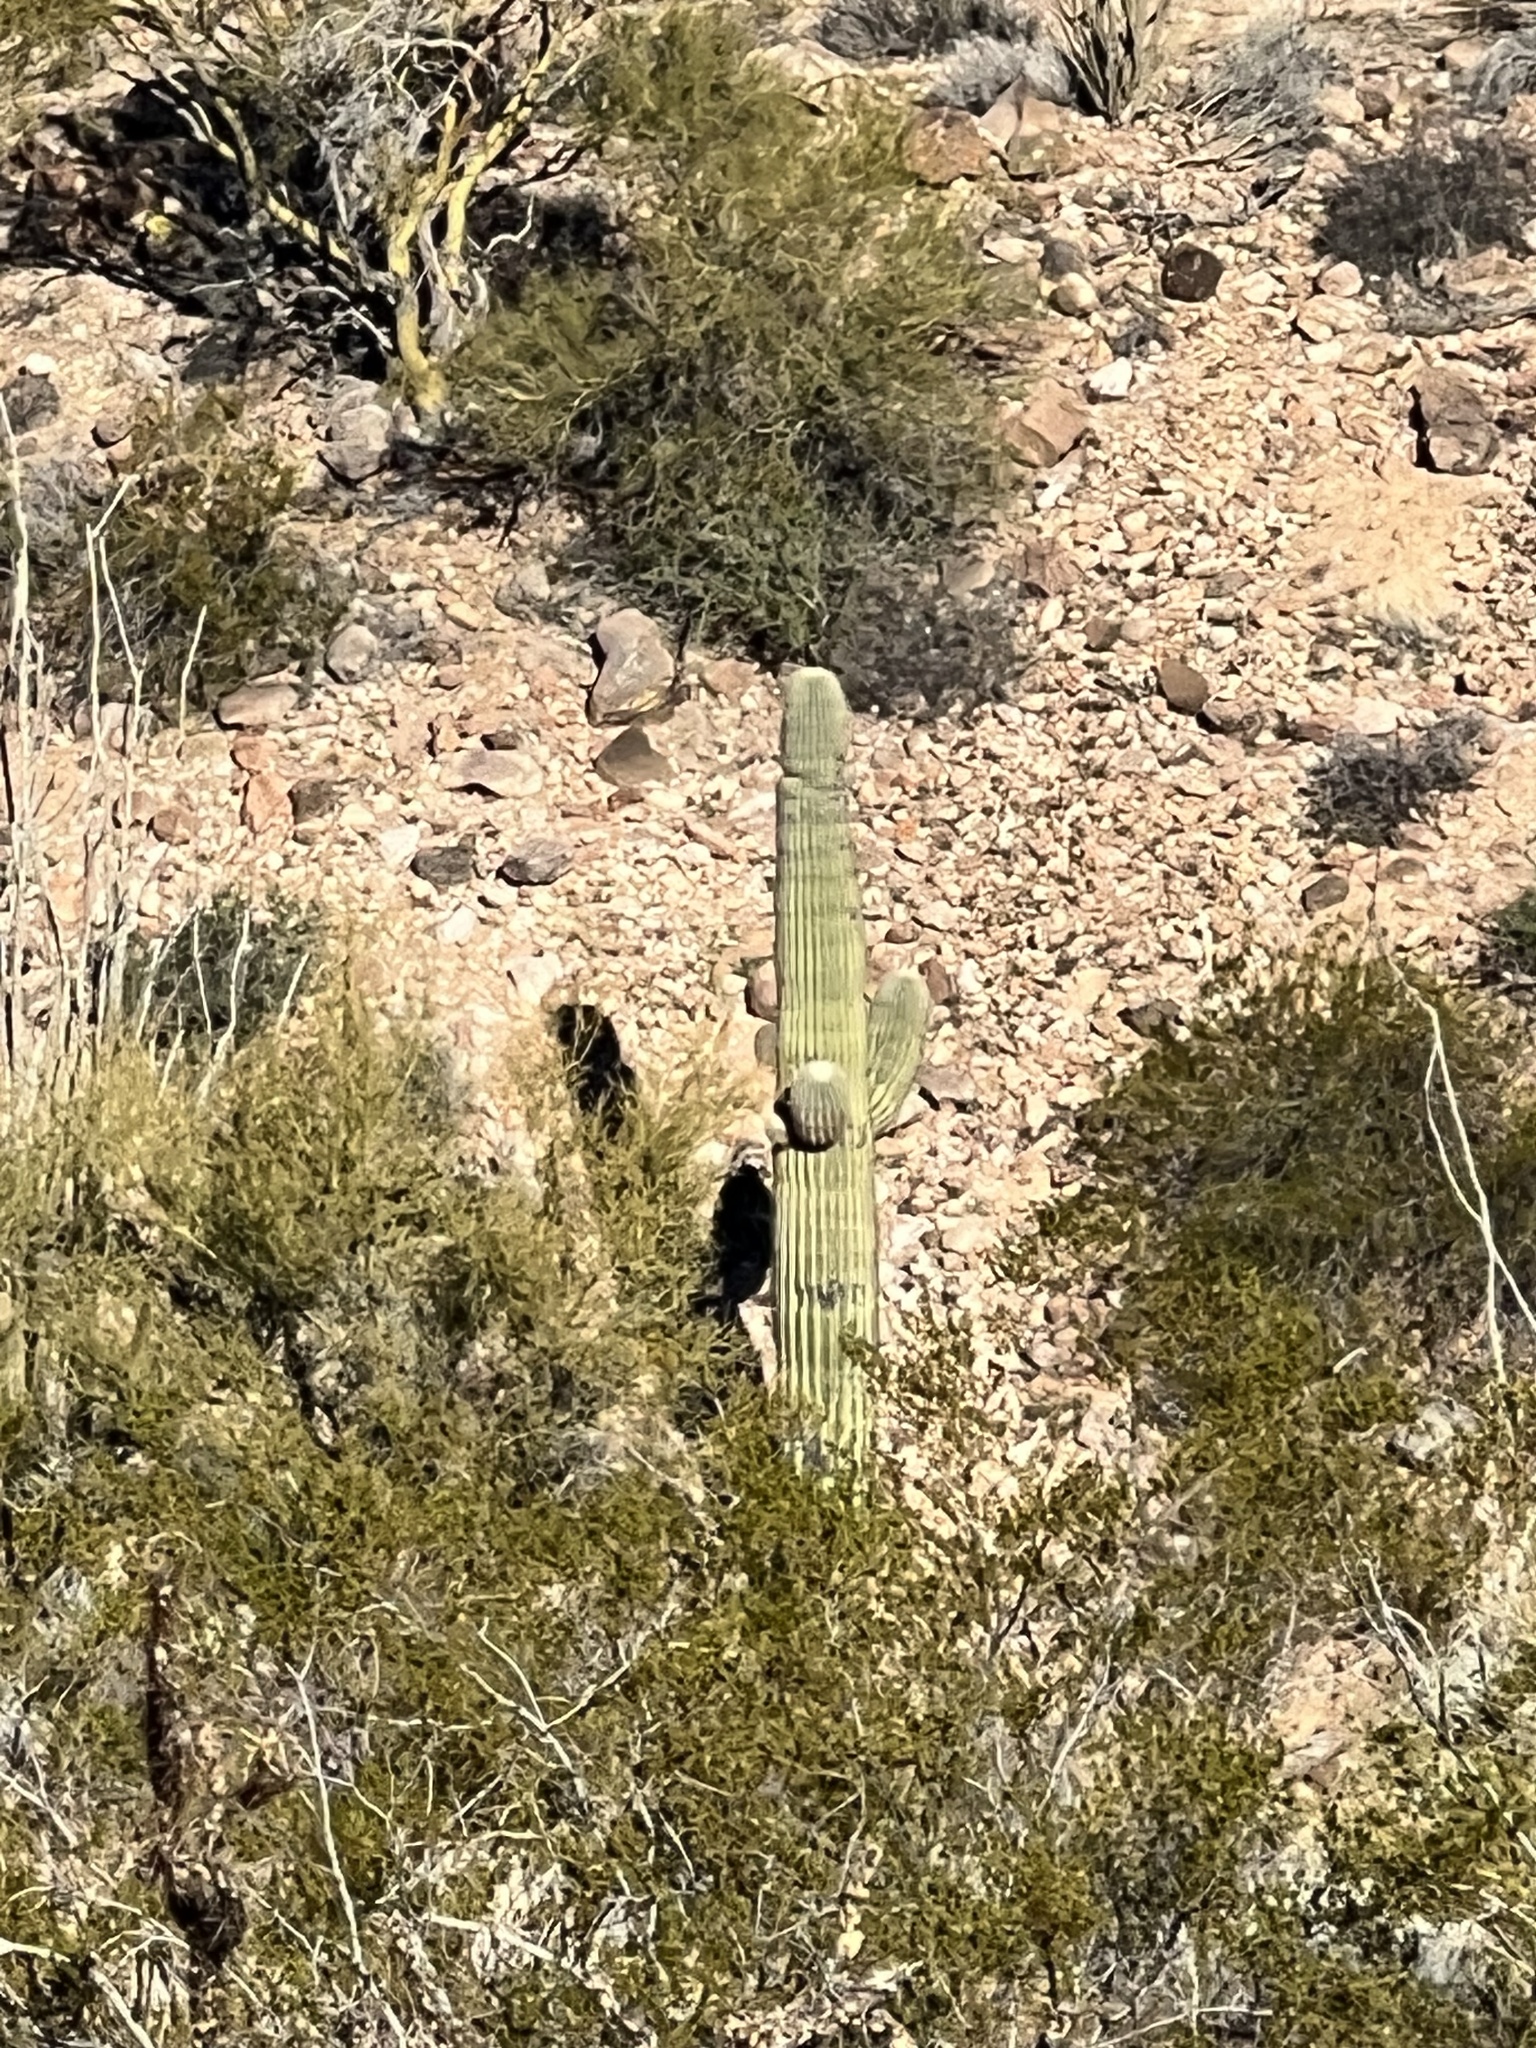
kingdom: Plantae
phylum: Tracheophyta
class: Magnoliopsida
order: Caryophyllales
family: Cactaceae
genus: Carnegiea
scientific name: Carnegiea gigantea
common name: Saguaro
